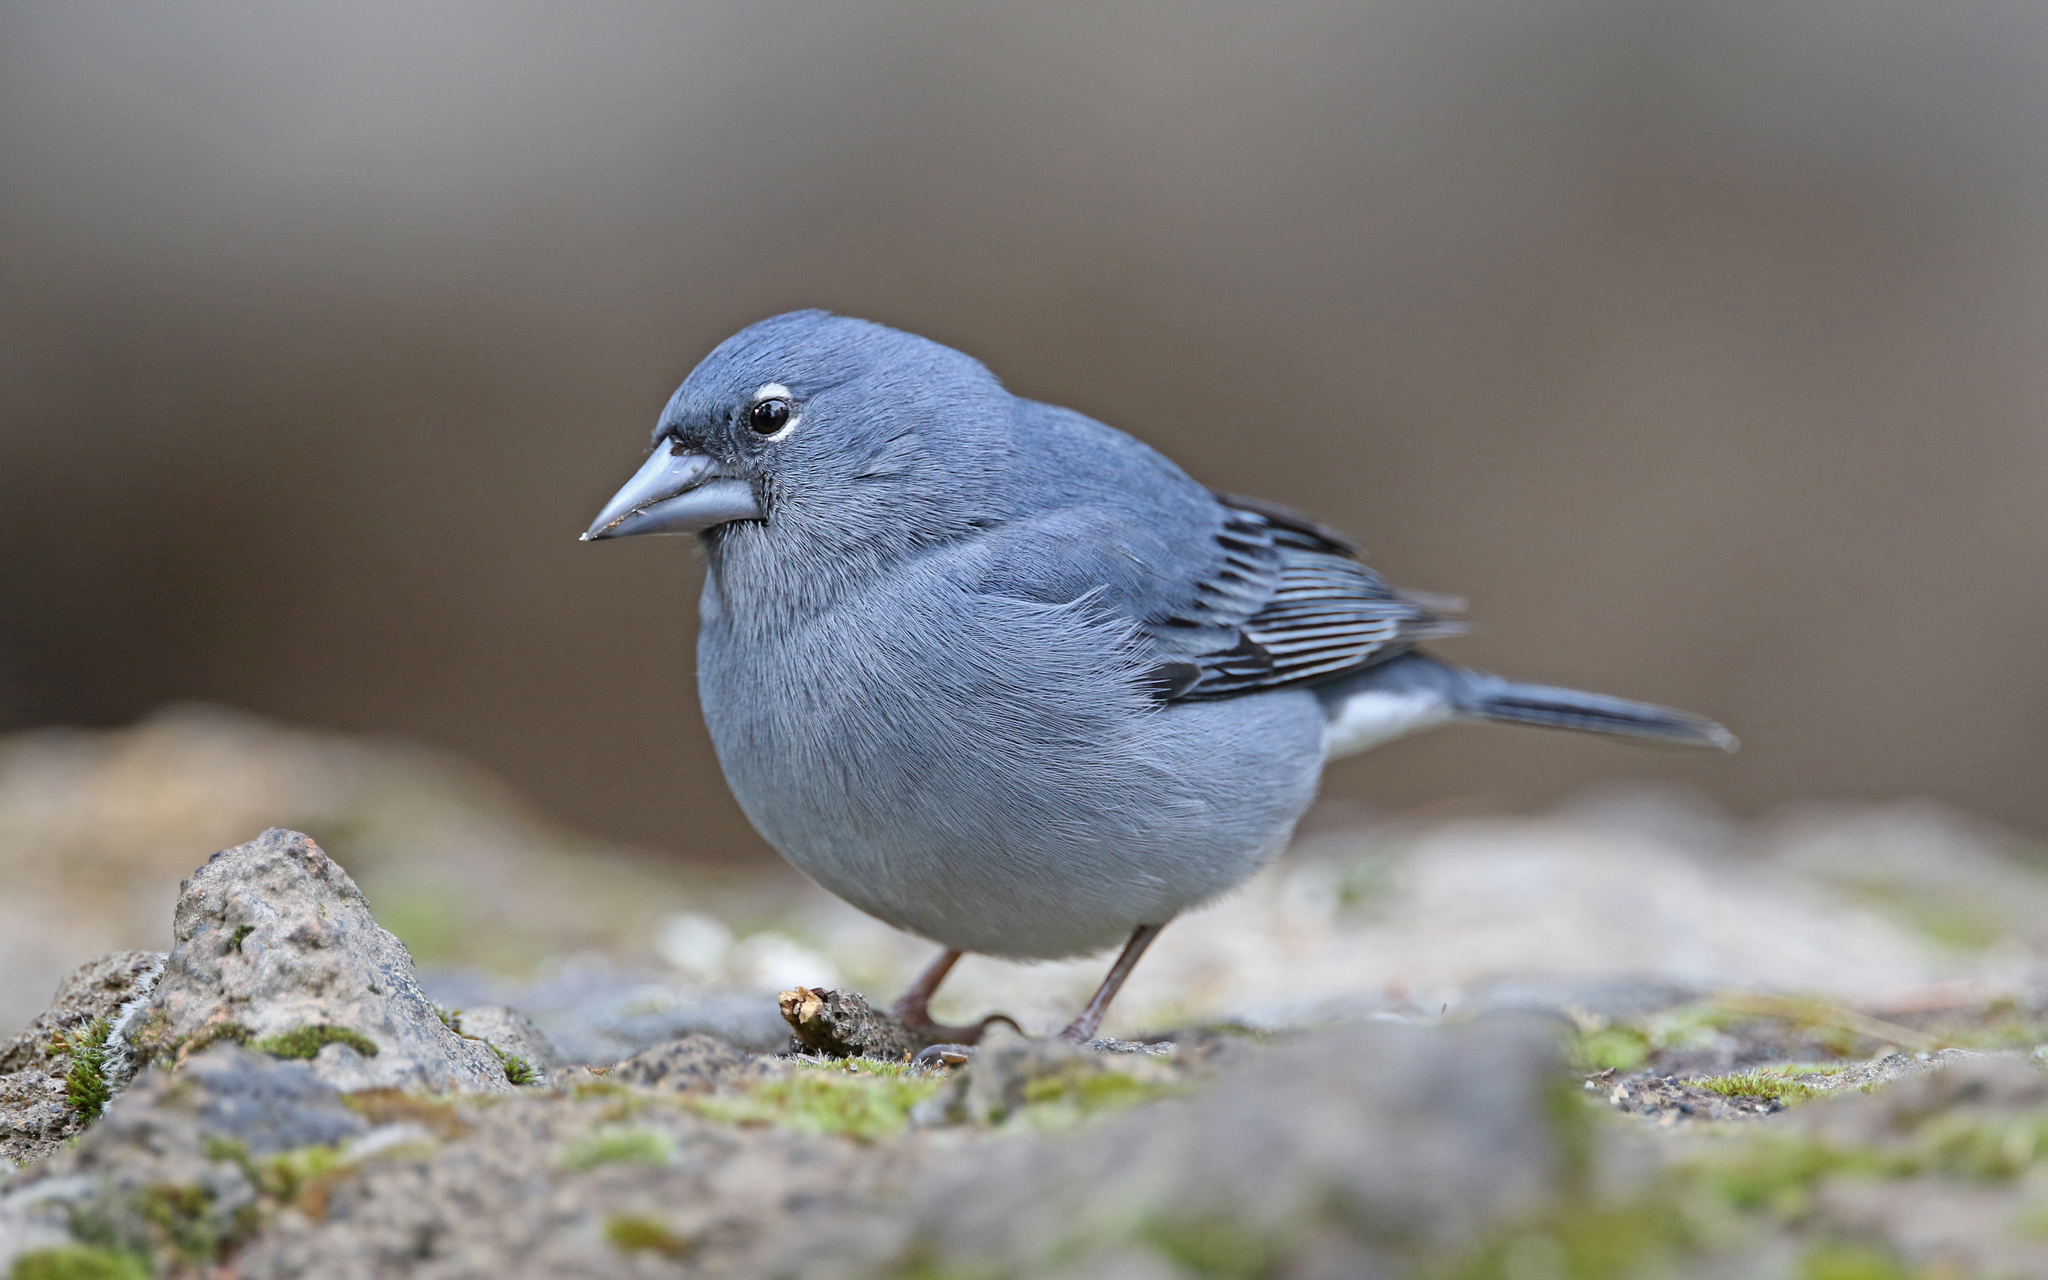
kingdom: Animalia
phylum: Chordata
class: Aves
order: Passeriformes
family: Fringillidae
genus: Fringilla
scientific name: Fringilla teydea
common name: Blue chaffinch
